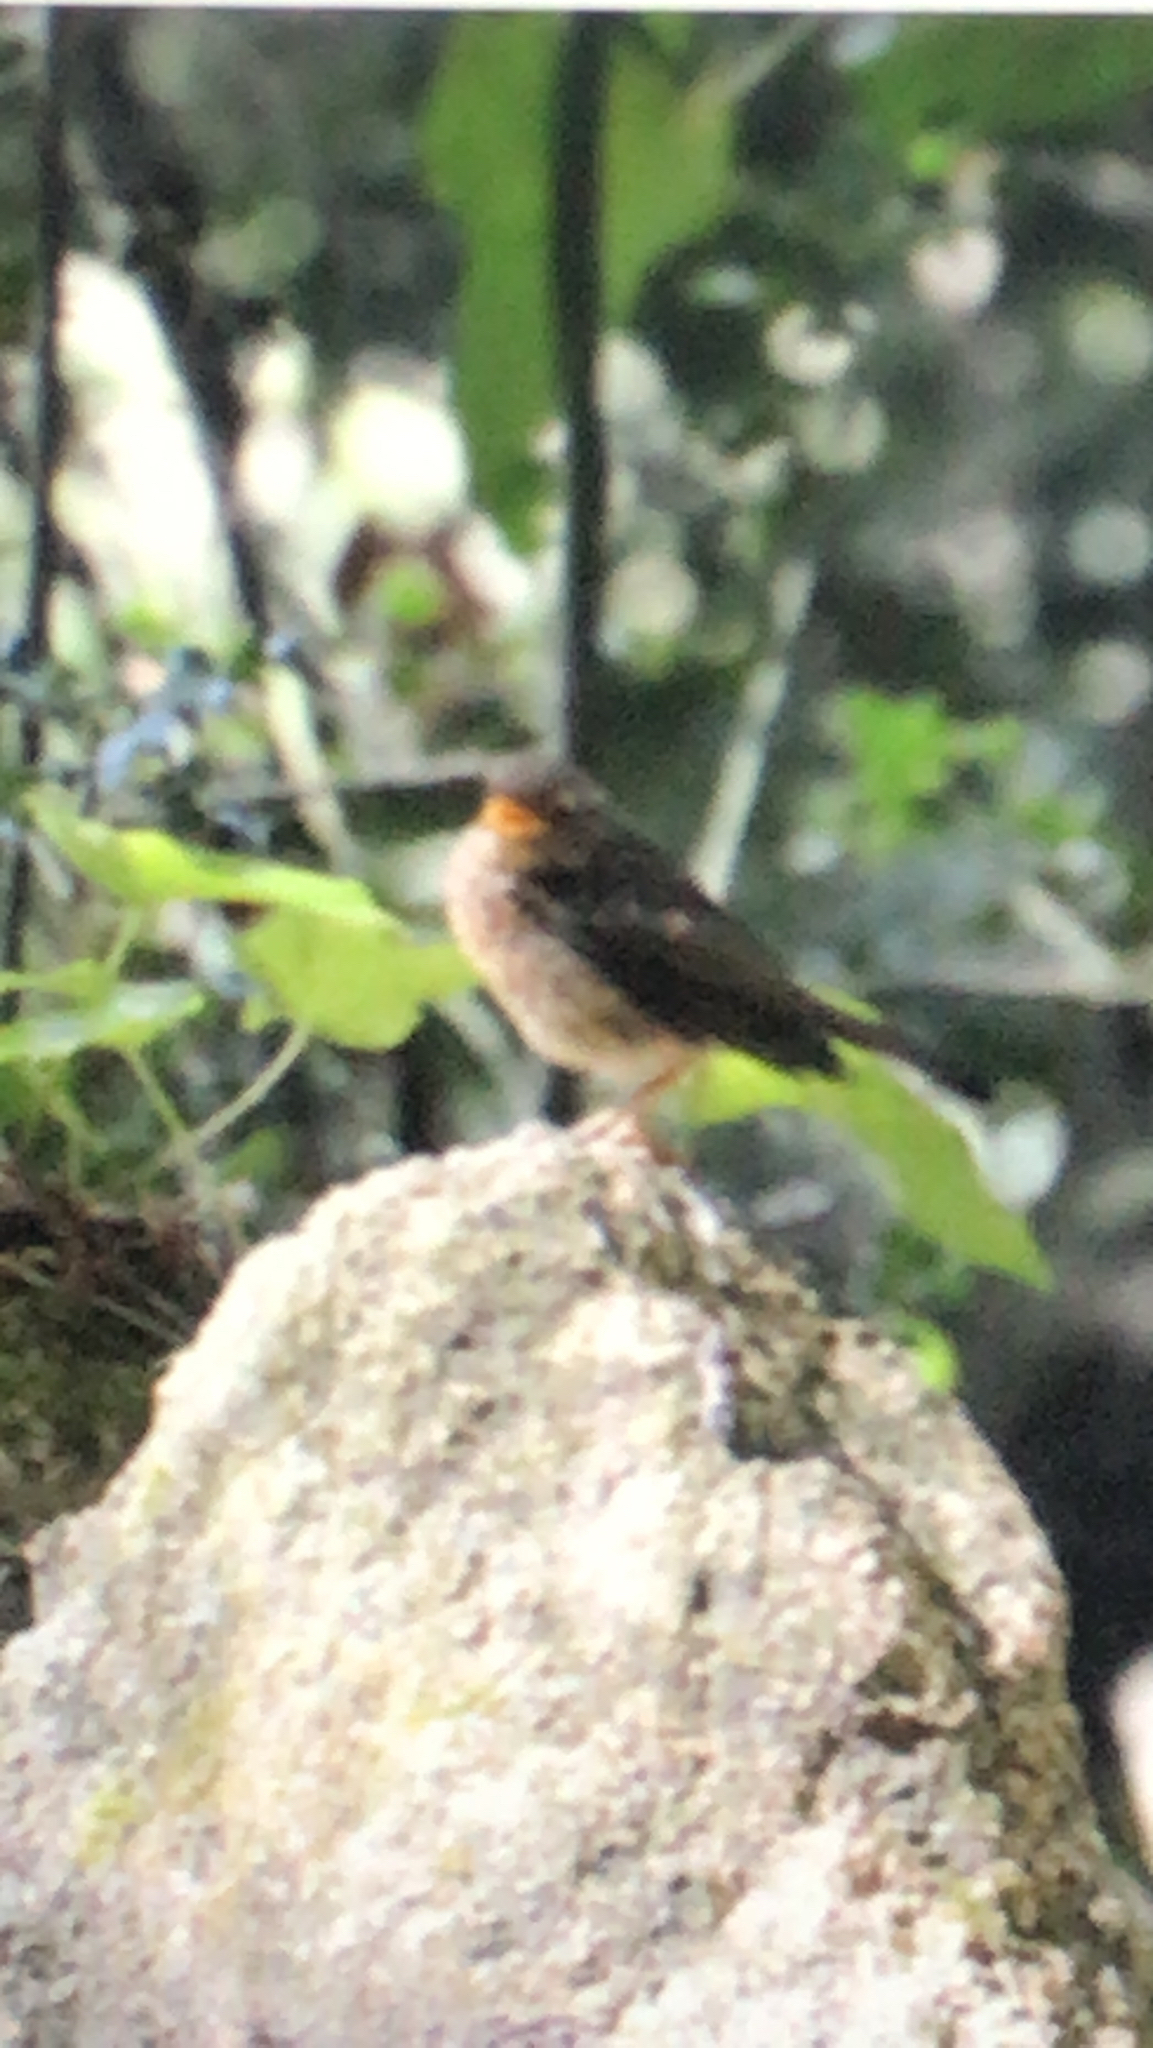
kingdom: Animalia
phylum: Chordata
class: Aves
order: Passeriformes
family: Muscicapidae
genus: Erithacus
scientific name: Erithacus rubecula
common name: European robin
